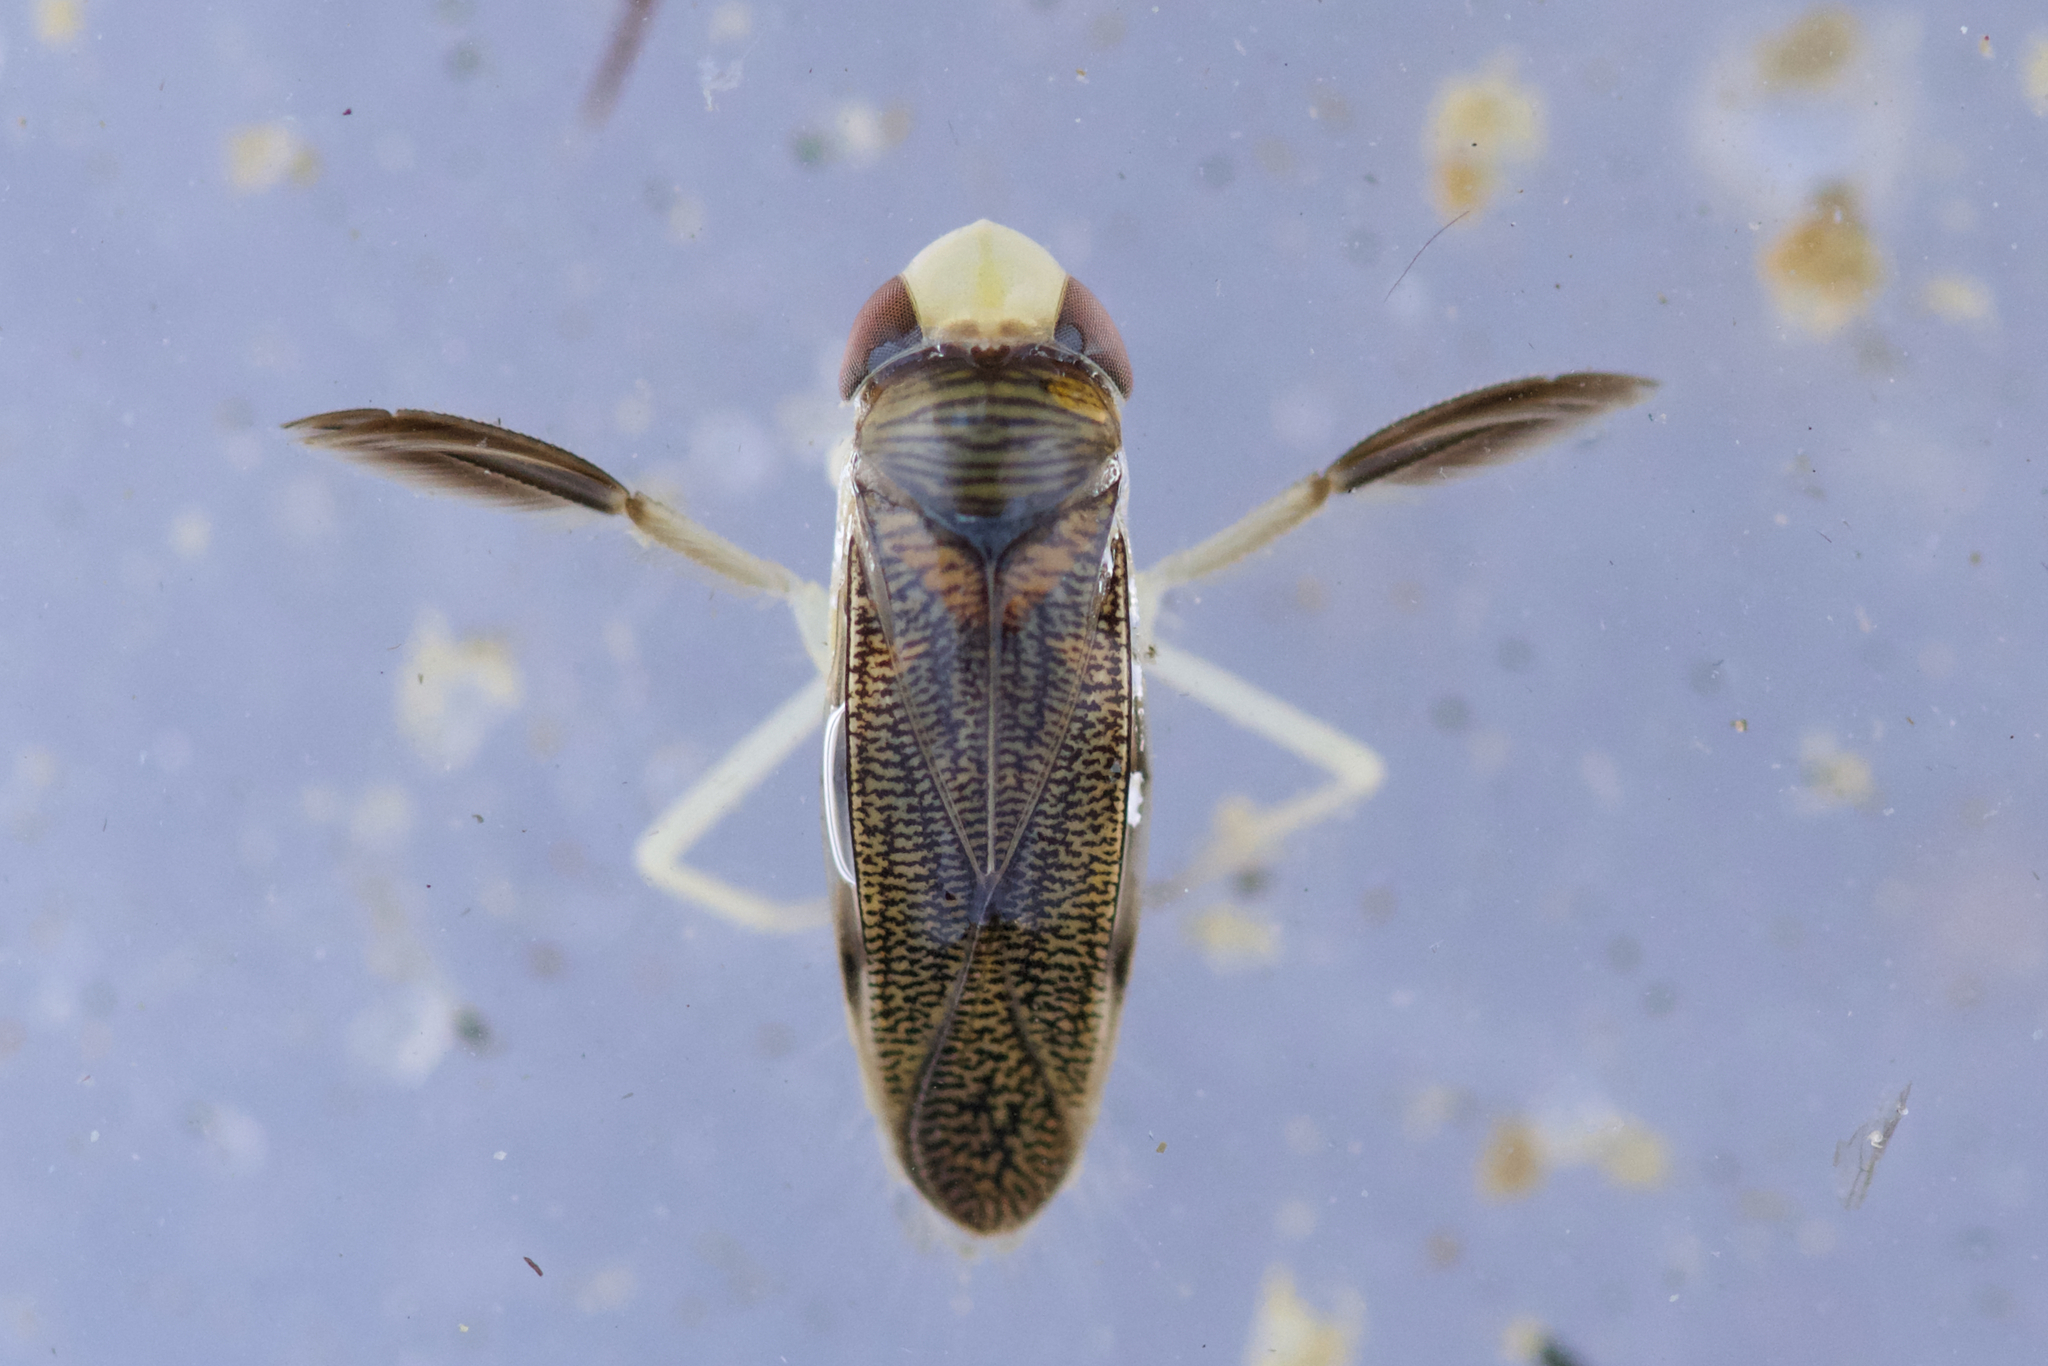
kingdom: Animalia
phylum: Arthropoda
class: Insecta
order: Hemiptera
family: Corixidae
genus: Corisella
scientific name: Corisella
